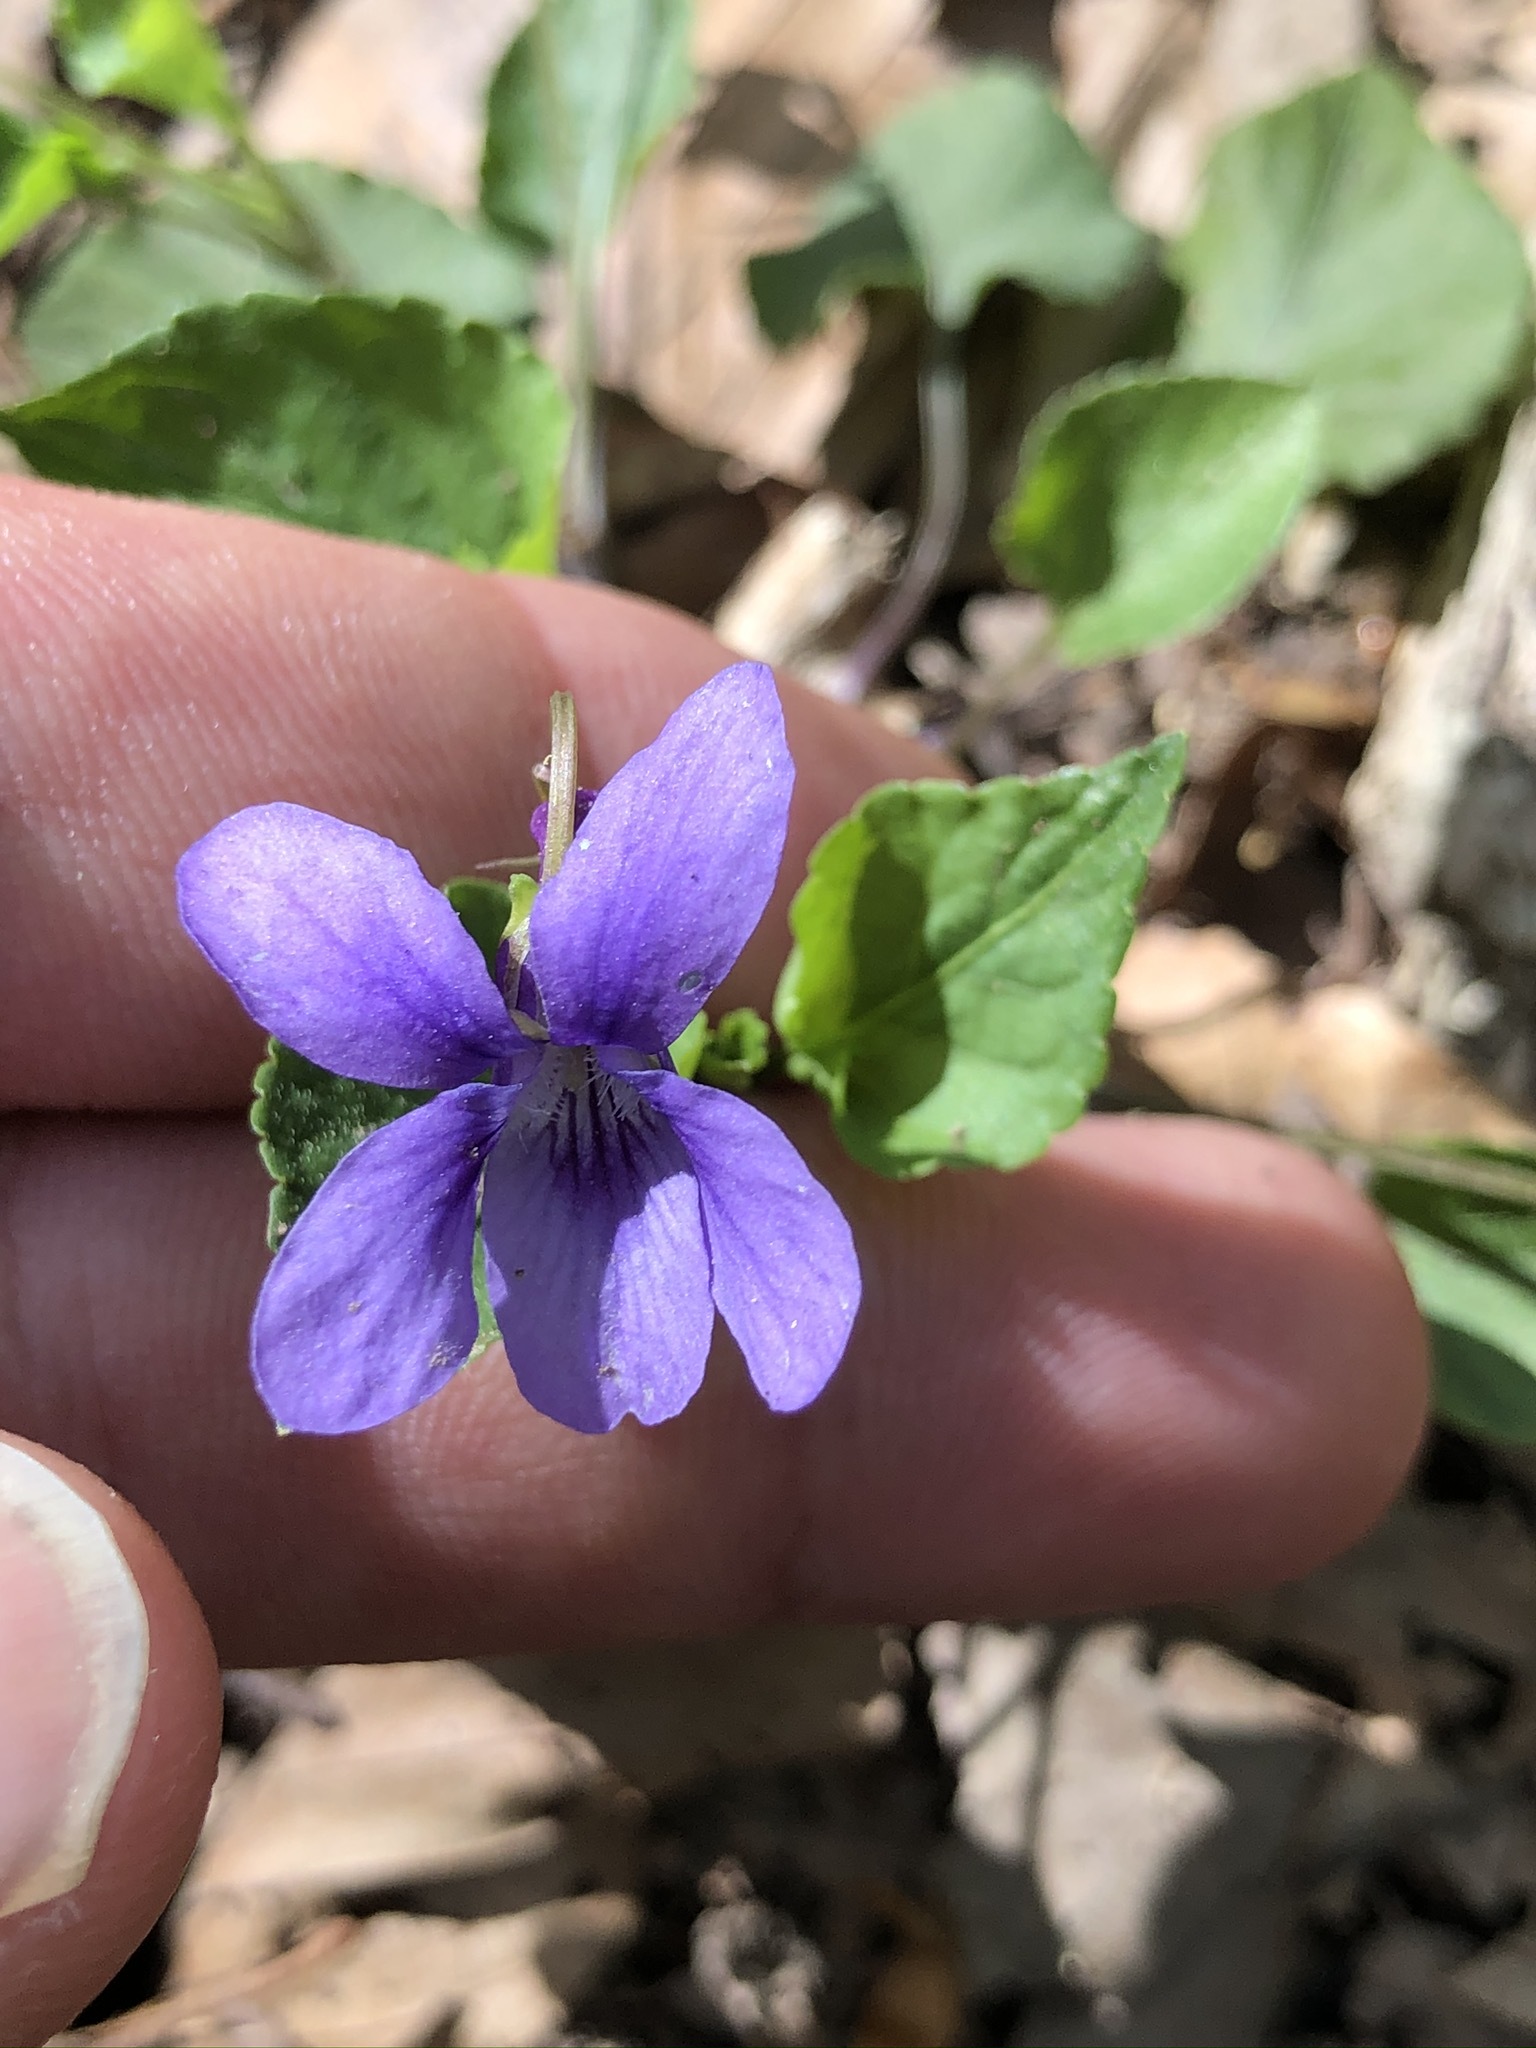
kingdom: Plantae
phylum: Tracheophyta
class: Magnoliopsida
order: Malpighiales
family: Violaceae
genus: Viola
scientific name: Viola reichenbachiana
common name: Early dog-violet
